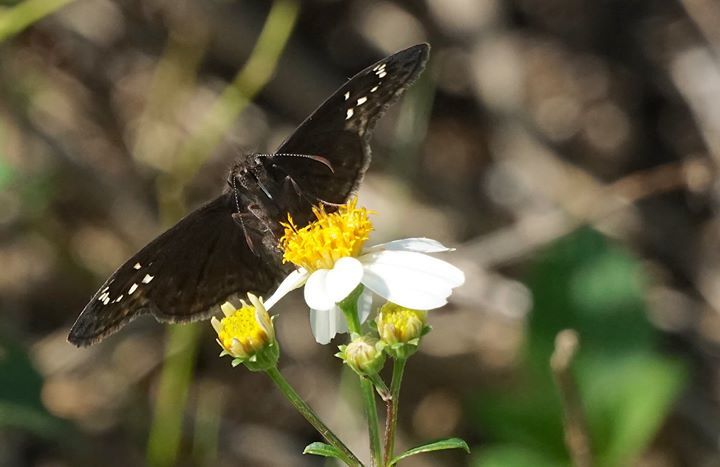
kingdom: Animalia
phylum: Arthropoda
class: Insecta
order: Lepidoptera
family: Hesperiidae
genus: Erynnis
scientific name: Erynnis horatius
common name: Horace's duskywing
